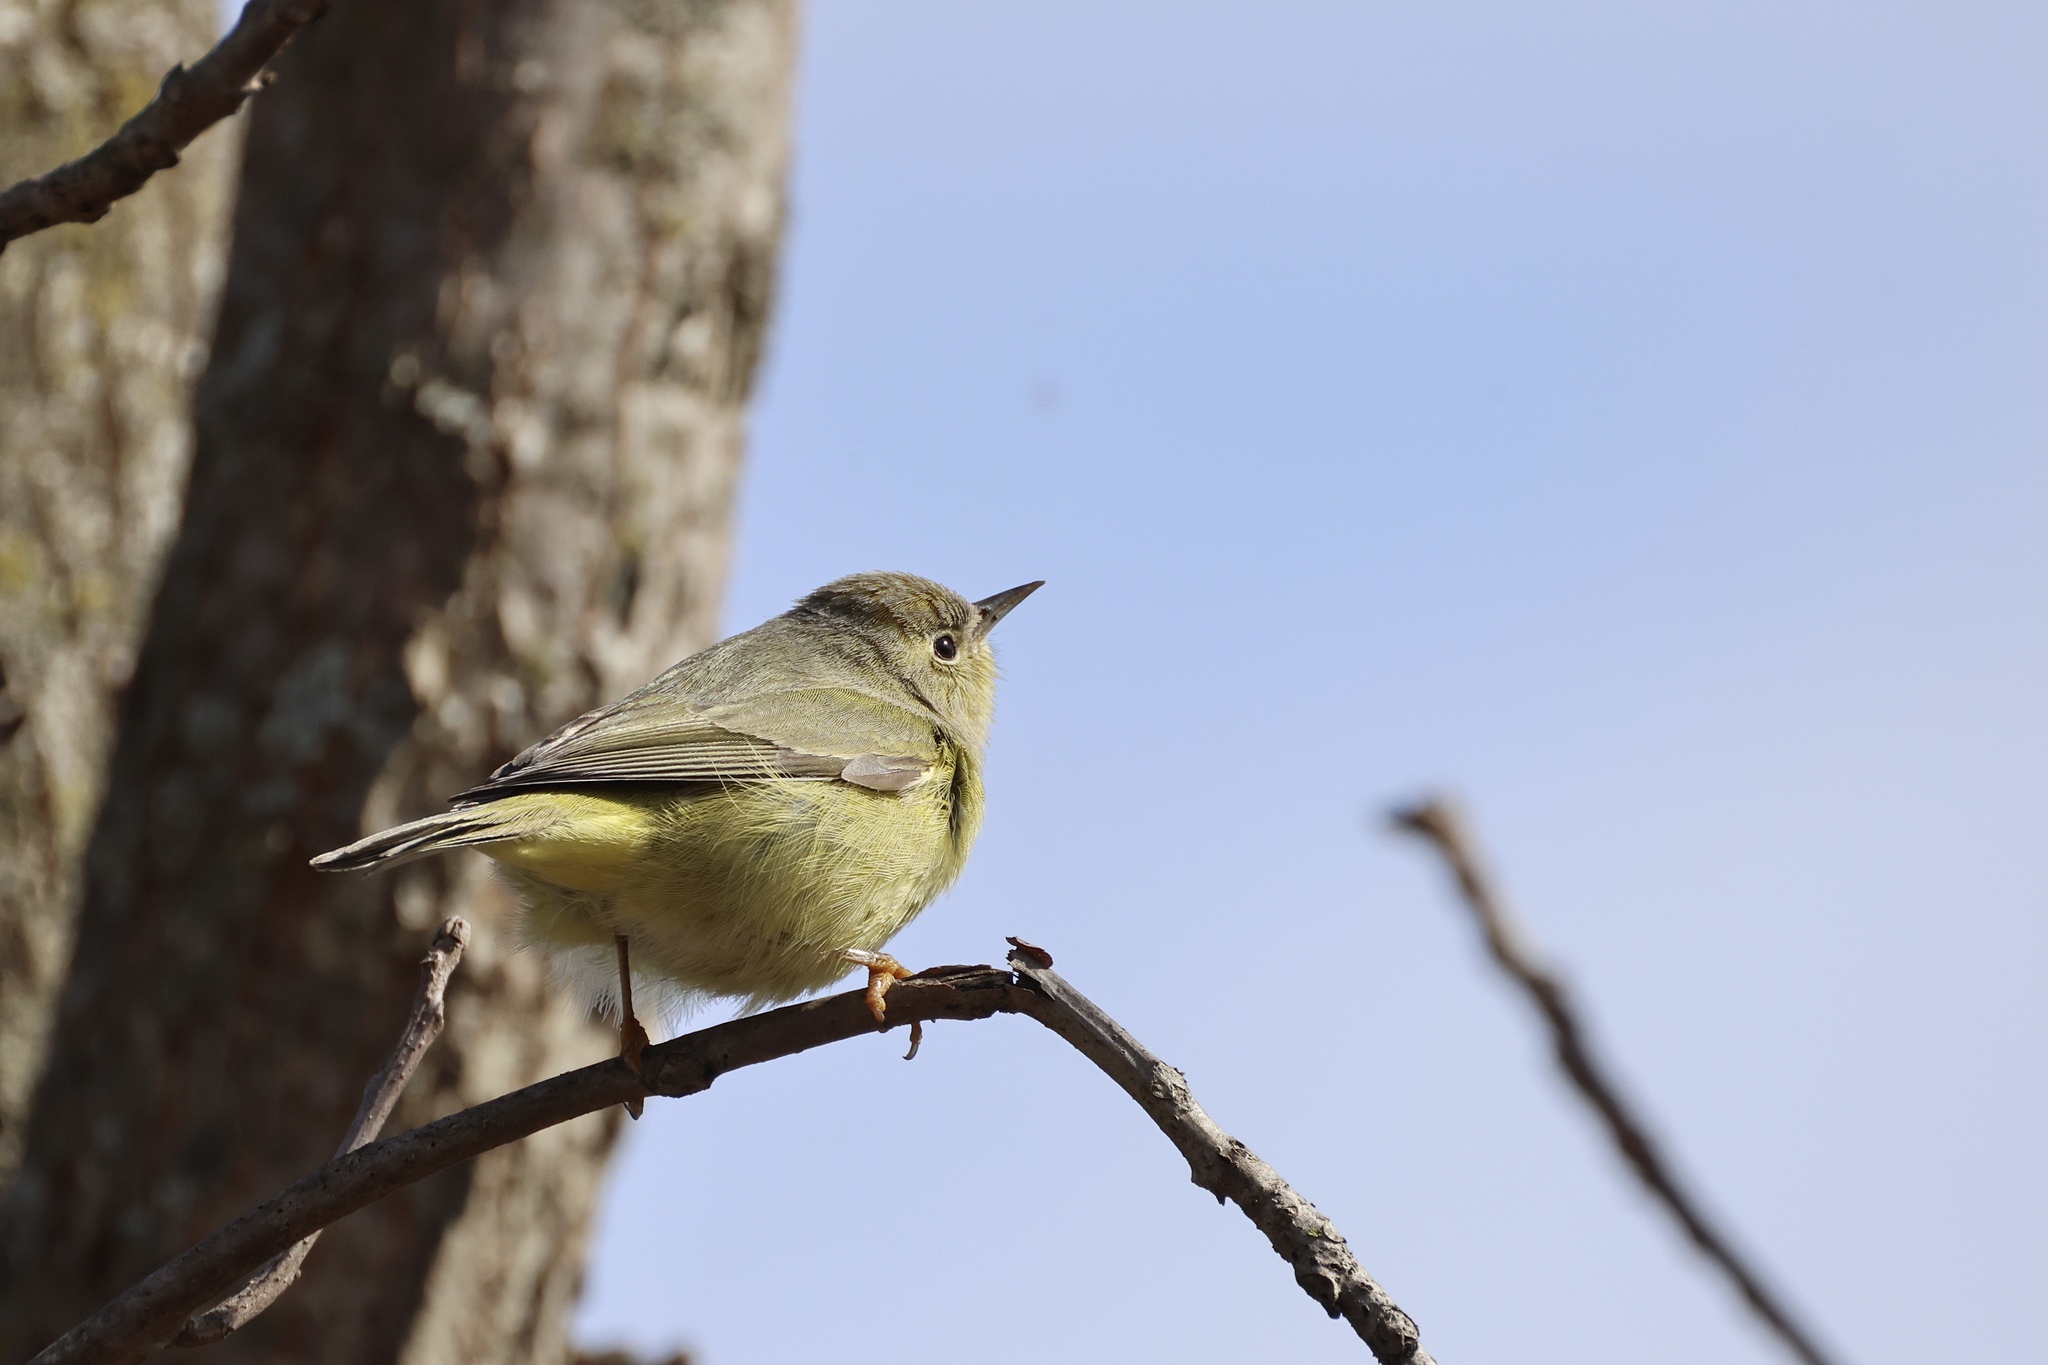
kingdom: Animalia
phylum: Chordata
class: Aves
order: Passeriformes
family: Parulidae
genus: Leiothlypis
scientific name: Leiothlypis celata
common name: Orange-crowned warbler
